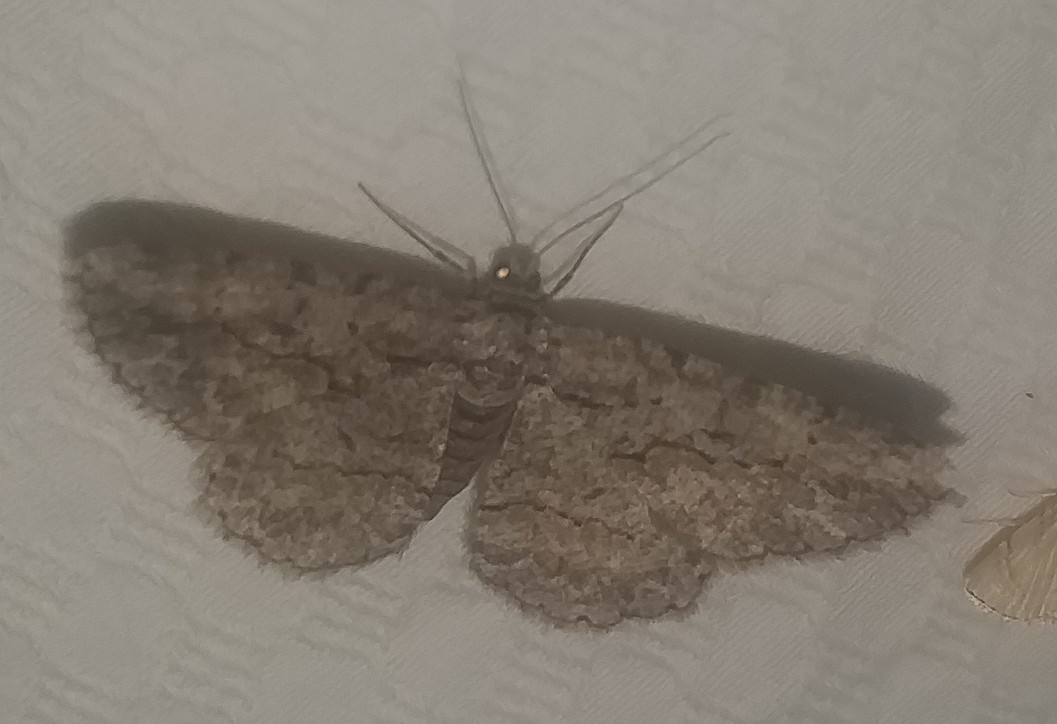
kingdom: Animalia
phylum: Arthropoda
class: Insecta
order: Lepidoptera
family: Geometridae
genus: Anavitrinella
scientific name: Anavitrinella pampinaria
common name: Common gray
